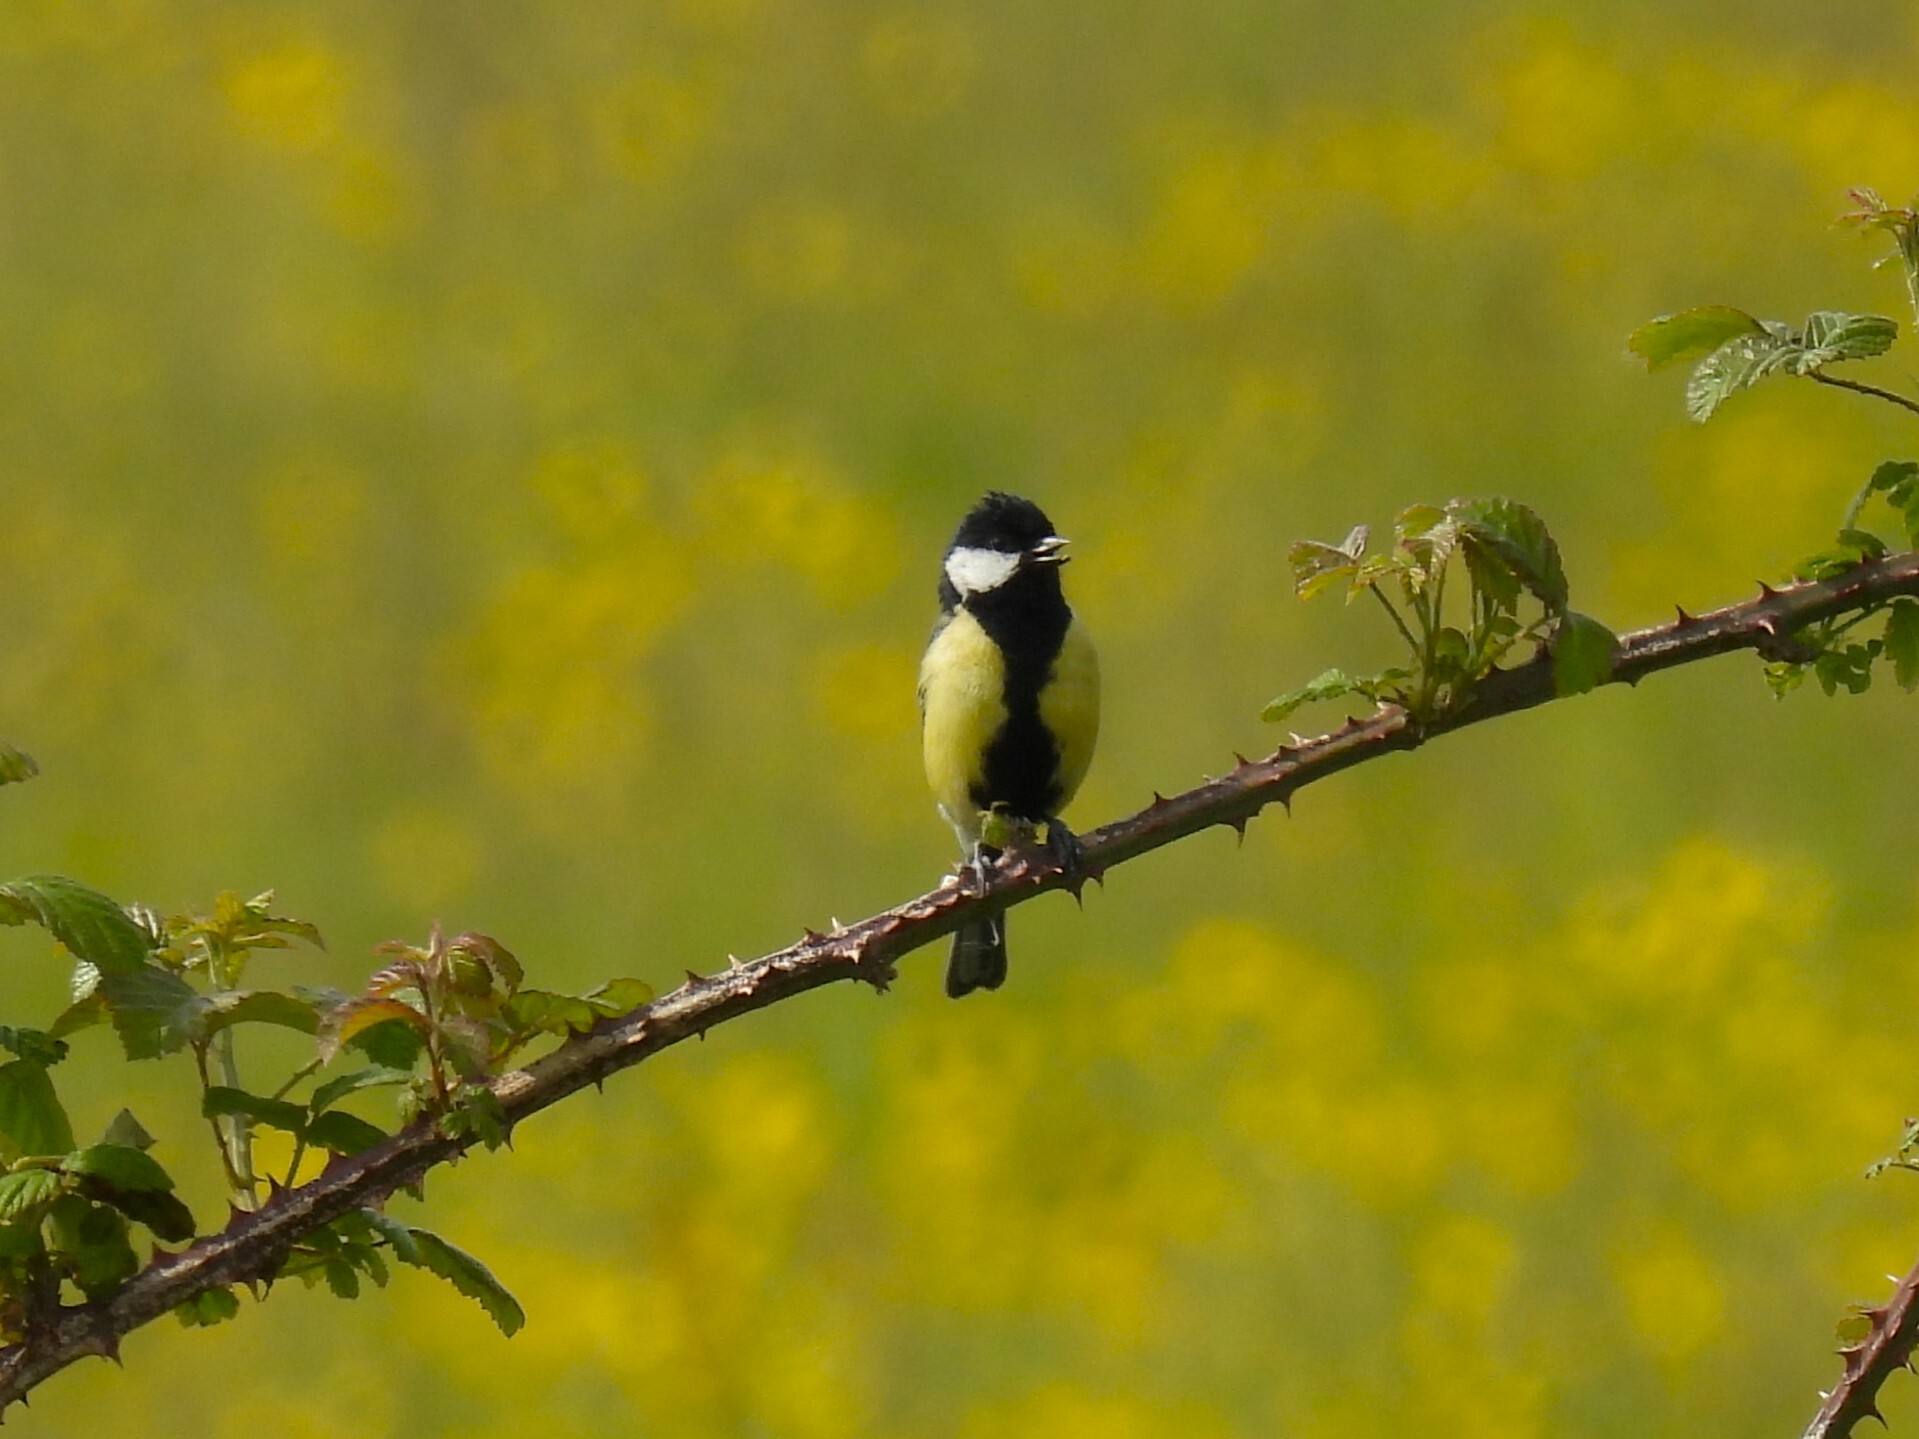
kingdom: Animalia
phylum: Chordata
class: Aves
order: Passeriformes
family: Paridae
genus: Parus
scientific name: Parus major
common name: Great tit
